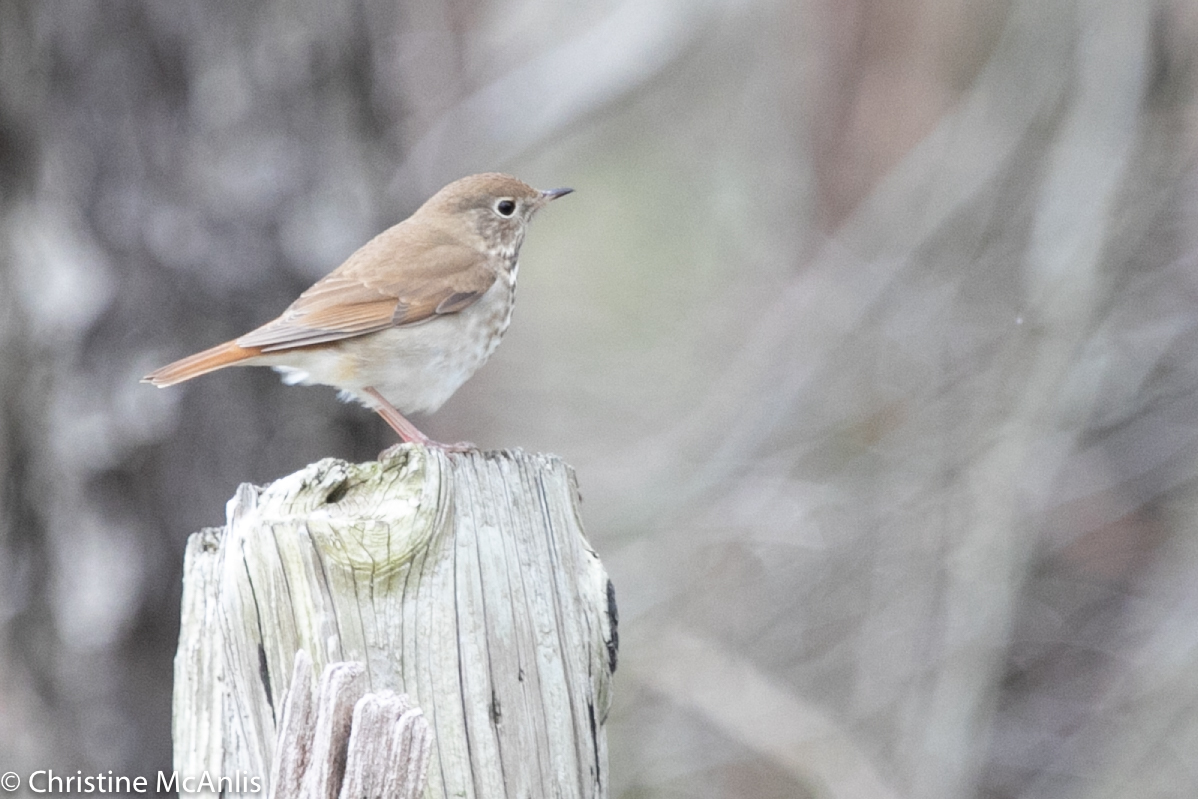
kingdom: Animalia
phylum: Chordata
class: Aves
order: Passeriformes
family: Turdidae
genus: Catharus
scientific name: Catharus guttatus
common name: Hermit thrush
